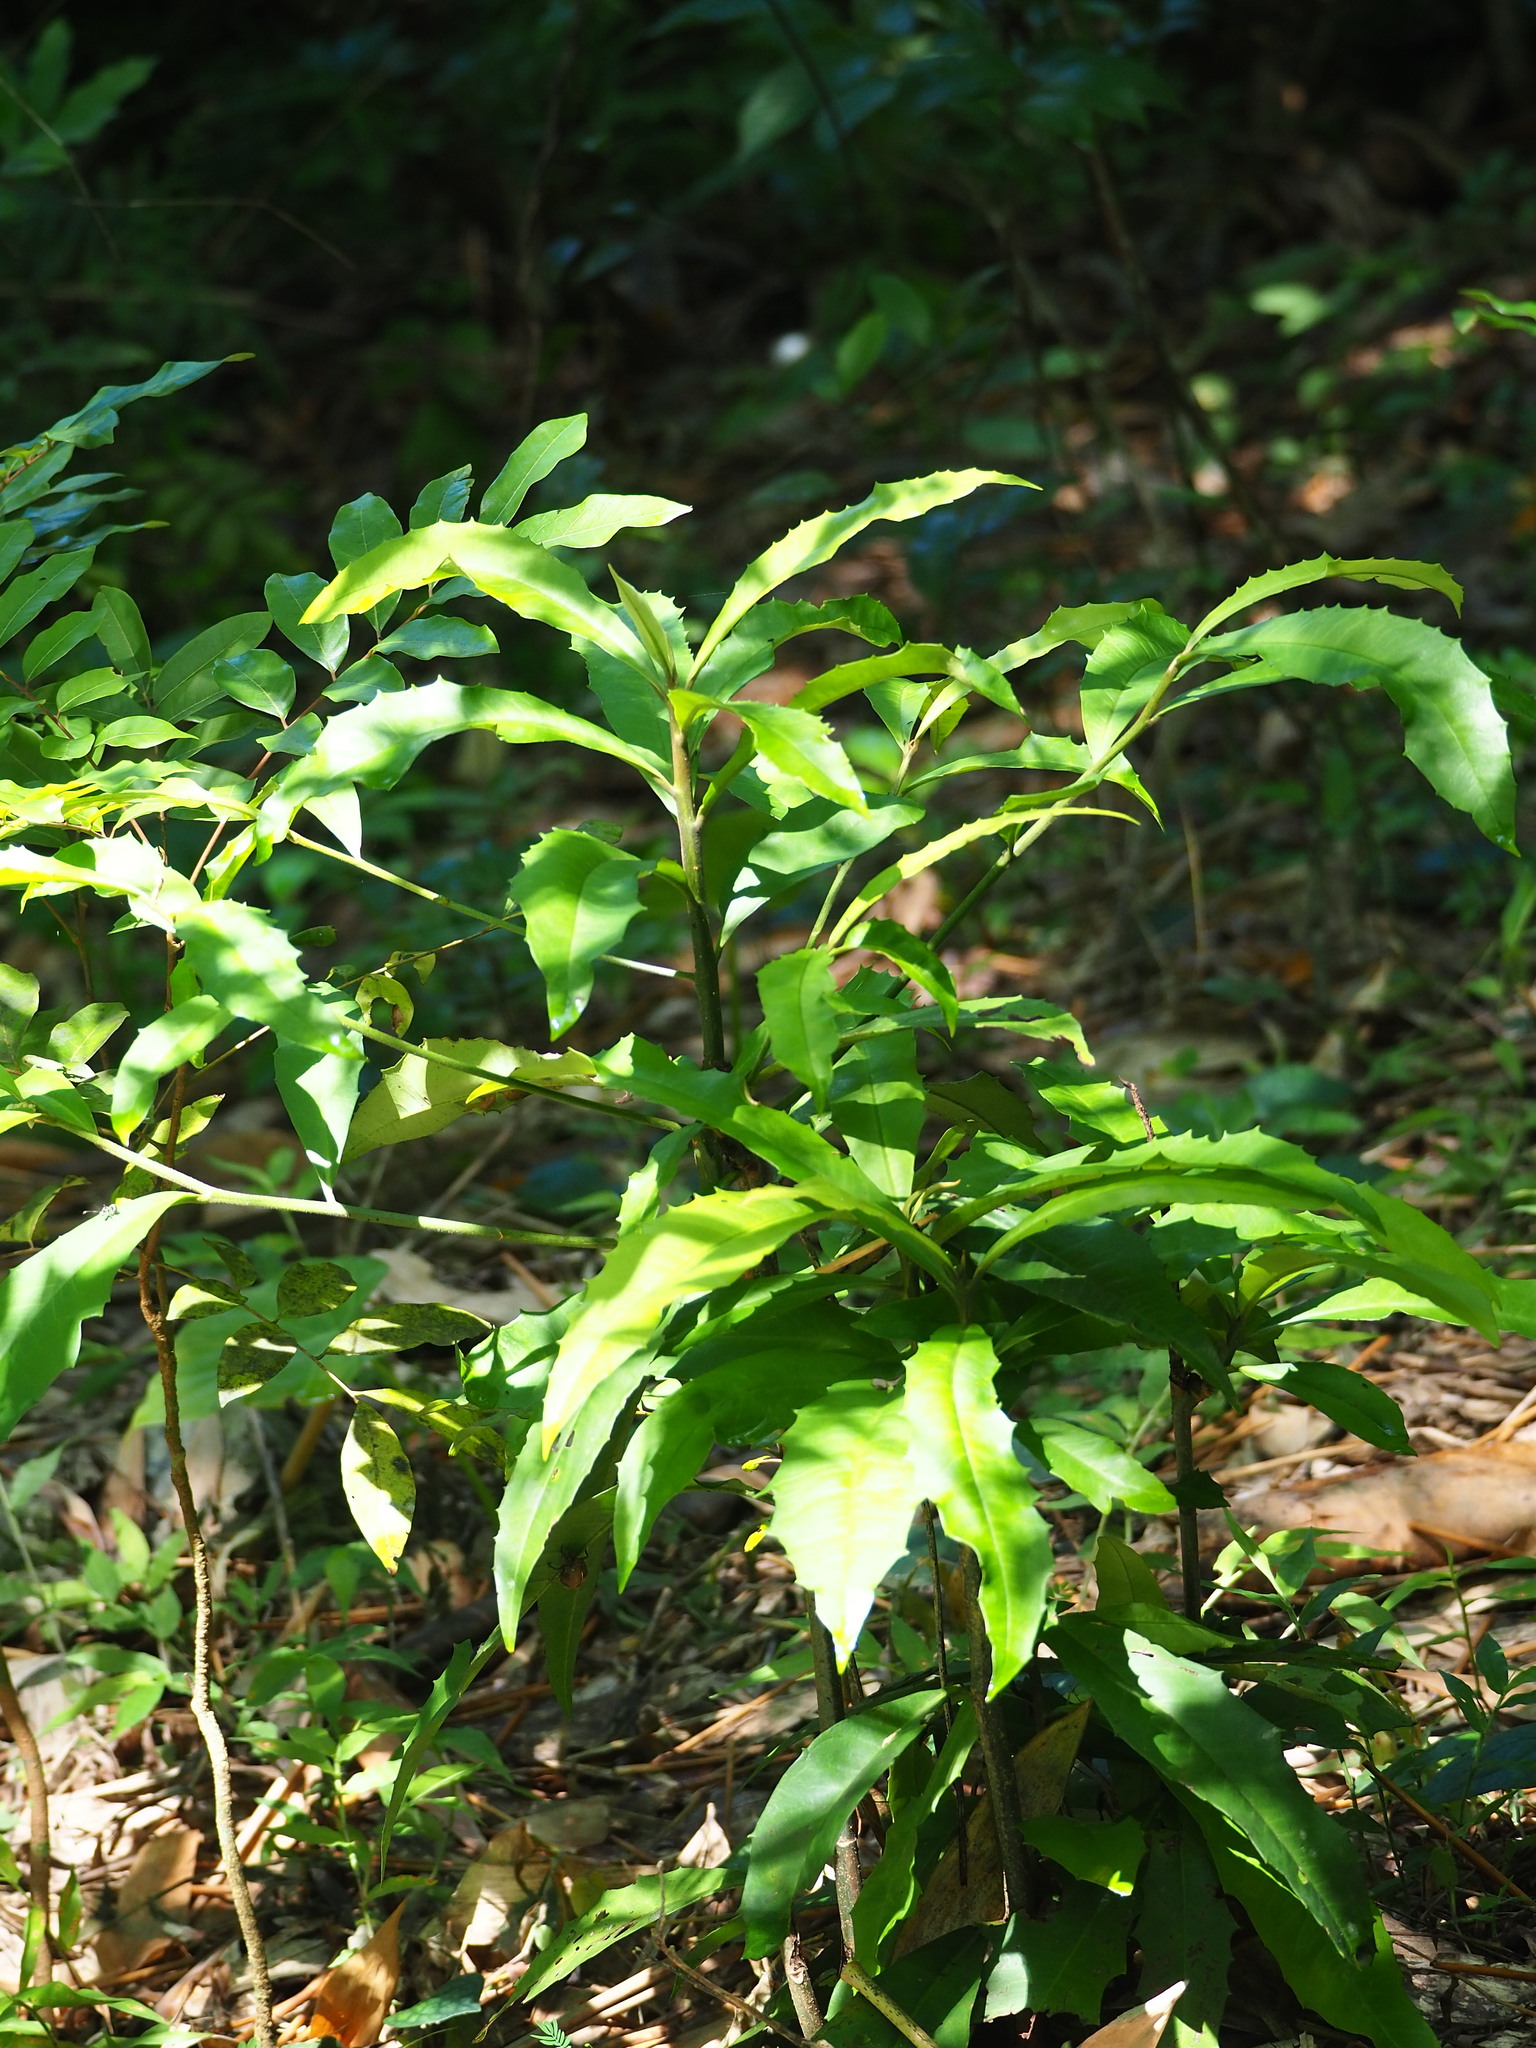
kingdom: Plantae
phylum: Tracheophyta
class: Magnoliopsida
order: Ericales
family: Primulaceae
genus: Ardisia
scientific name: Ardisia cornudentata
